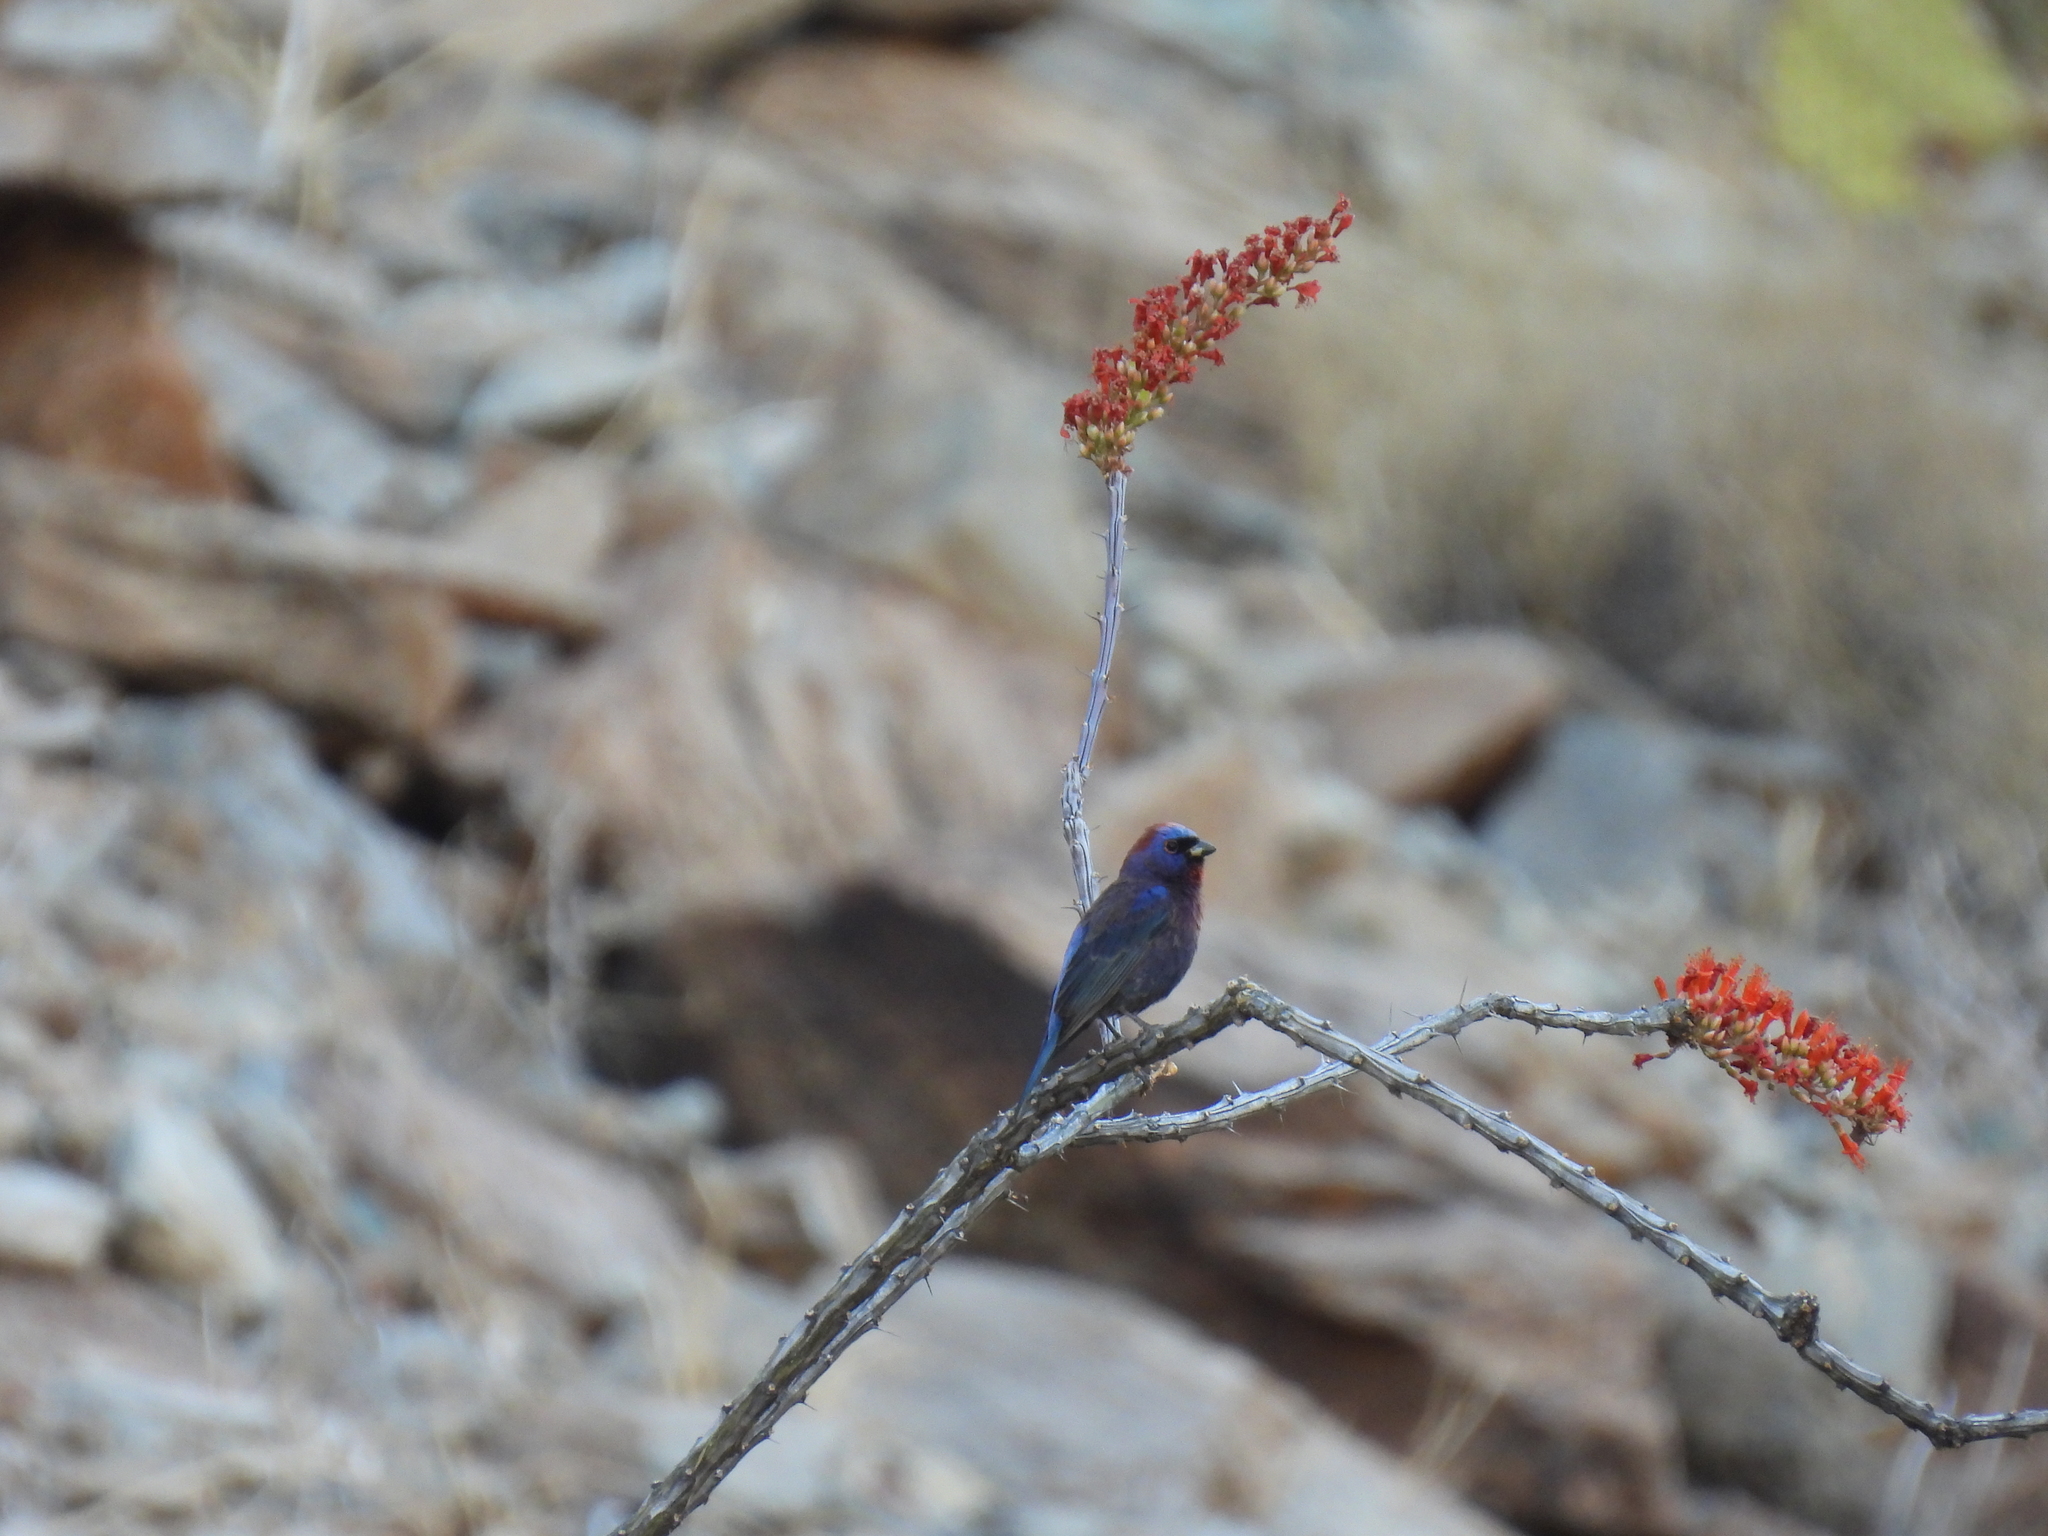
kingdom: Animalia
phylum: Chordata
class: Aves
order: Passeriformes
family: Cardinalidae
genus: Passerina
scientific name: Passerina versicolor
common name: Varied bunting
